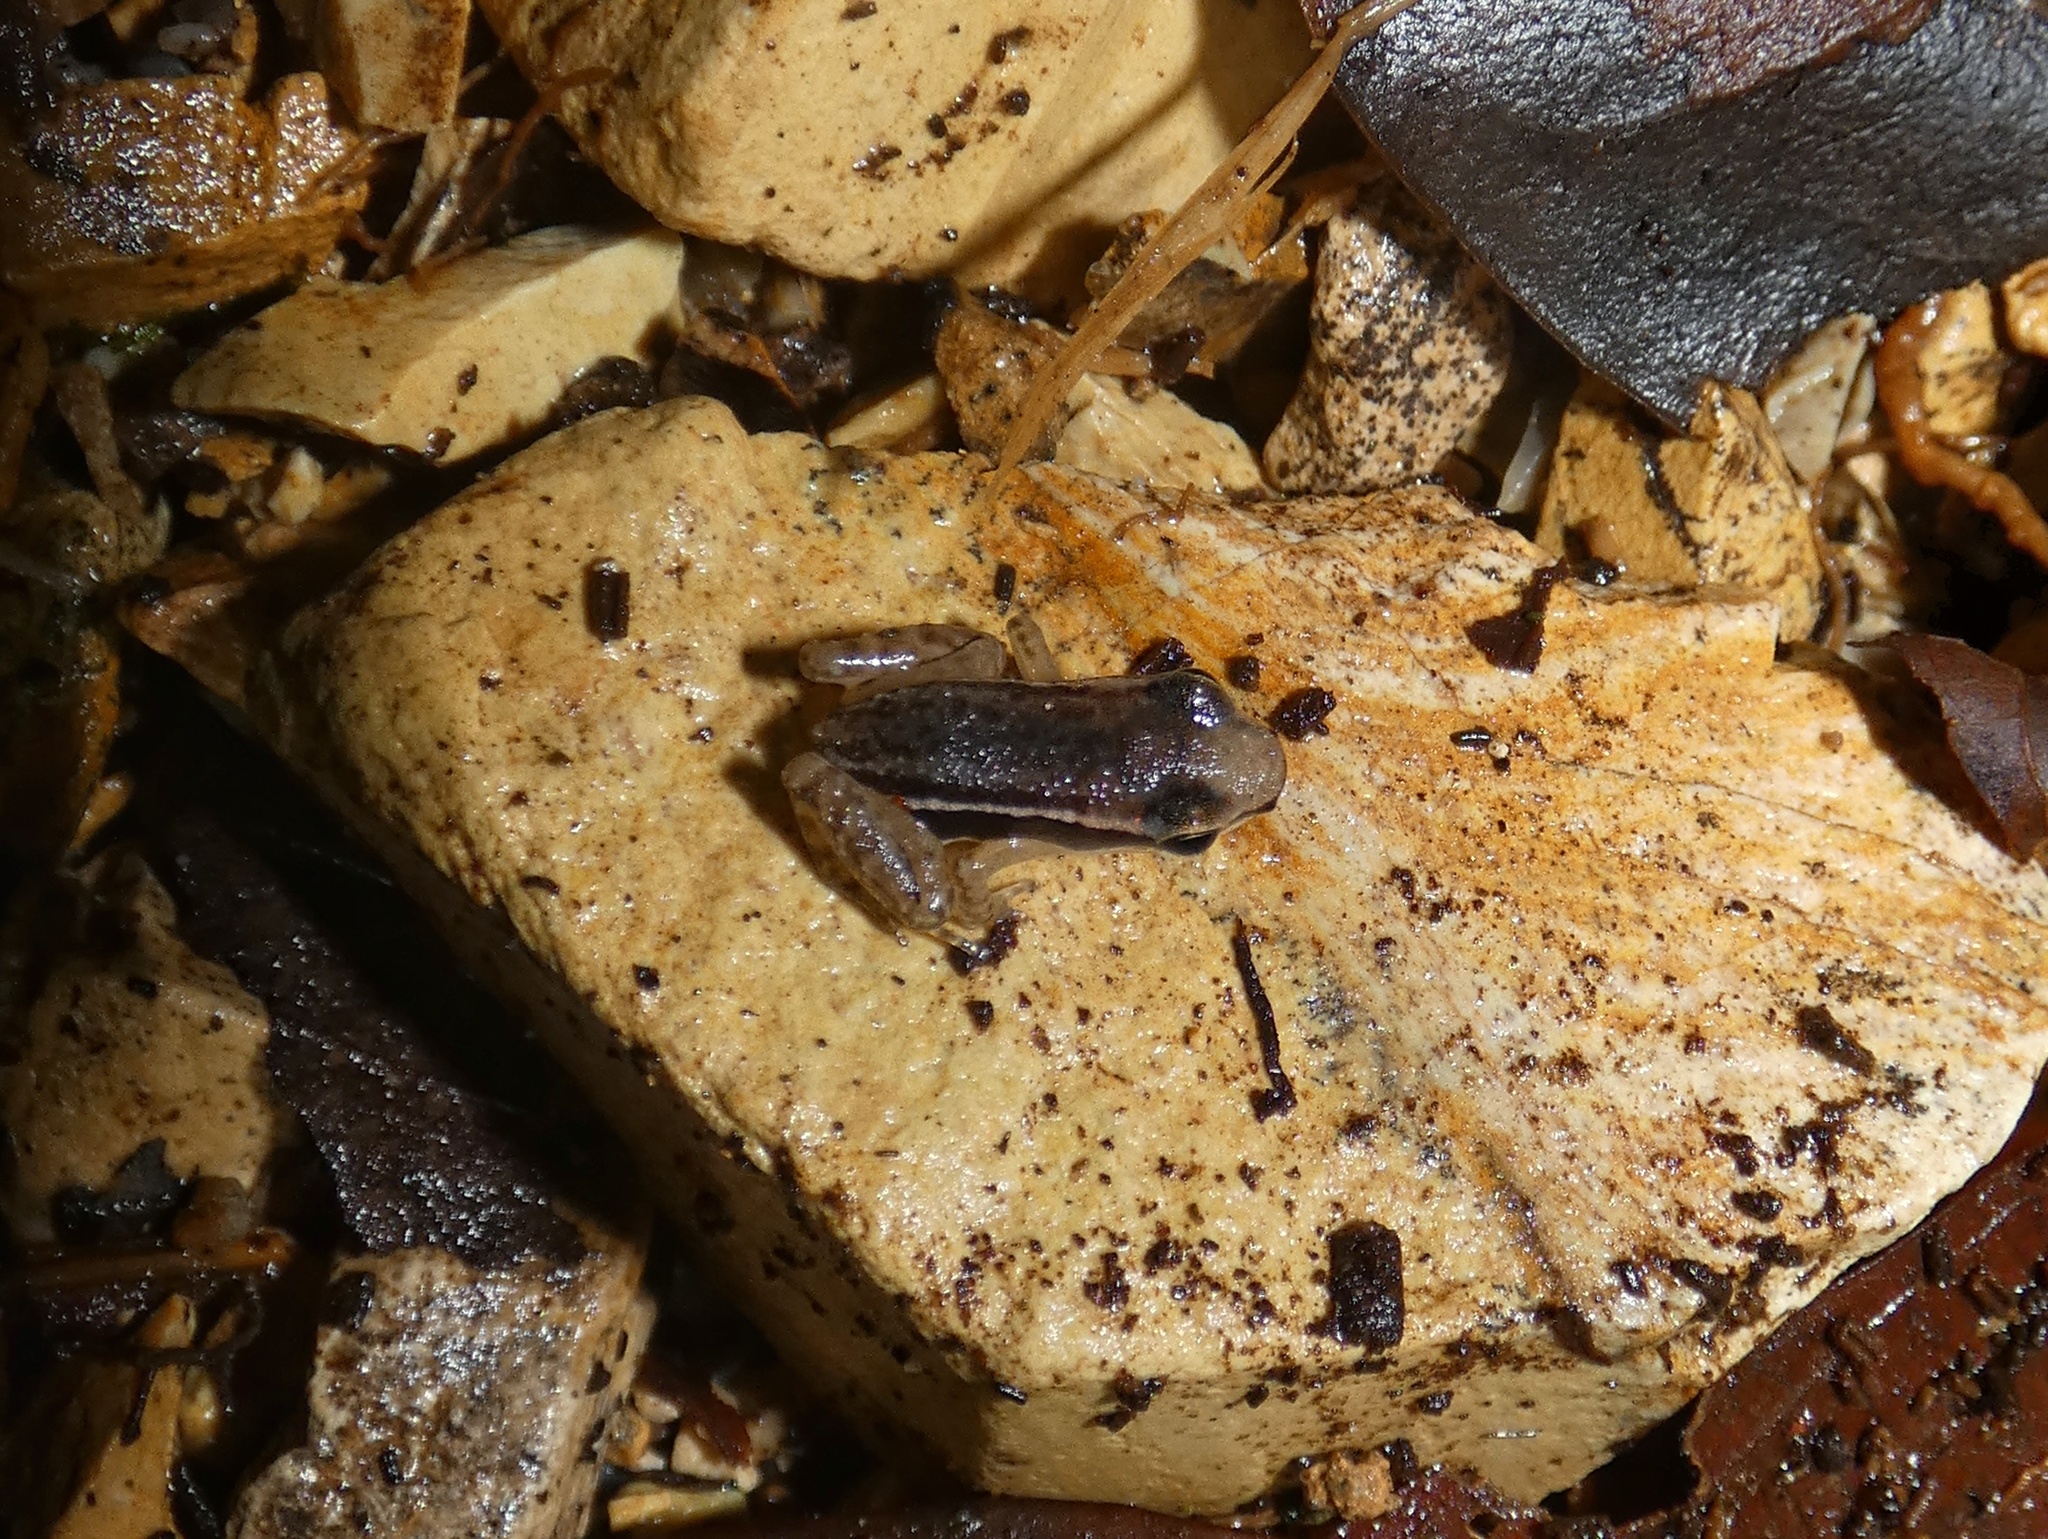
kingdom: Animalia
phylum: Chordata
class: Amphibia
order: Anura
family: Dendrobatidae
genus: Silverstoneia
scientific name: Silverstoneia nubicola
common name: Boquete rocket frog
